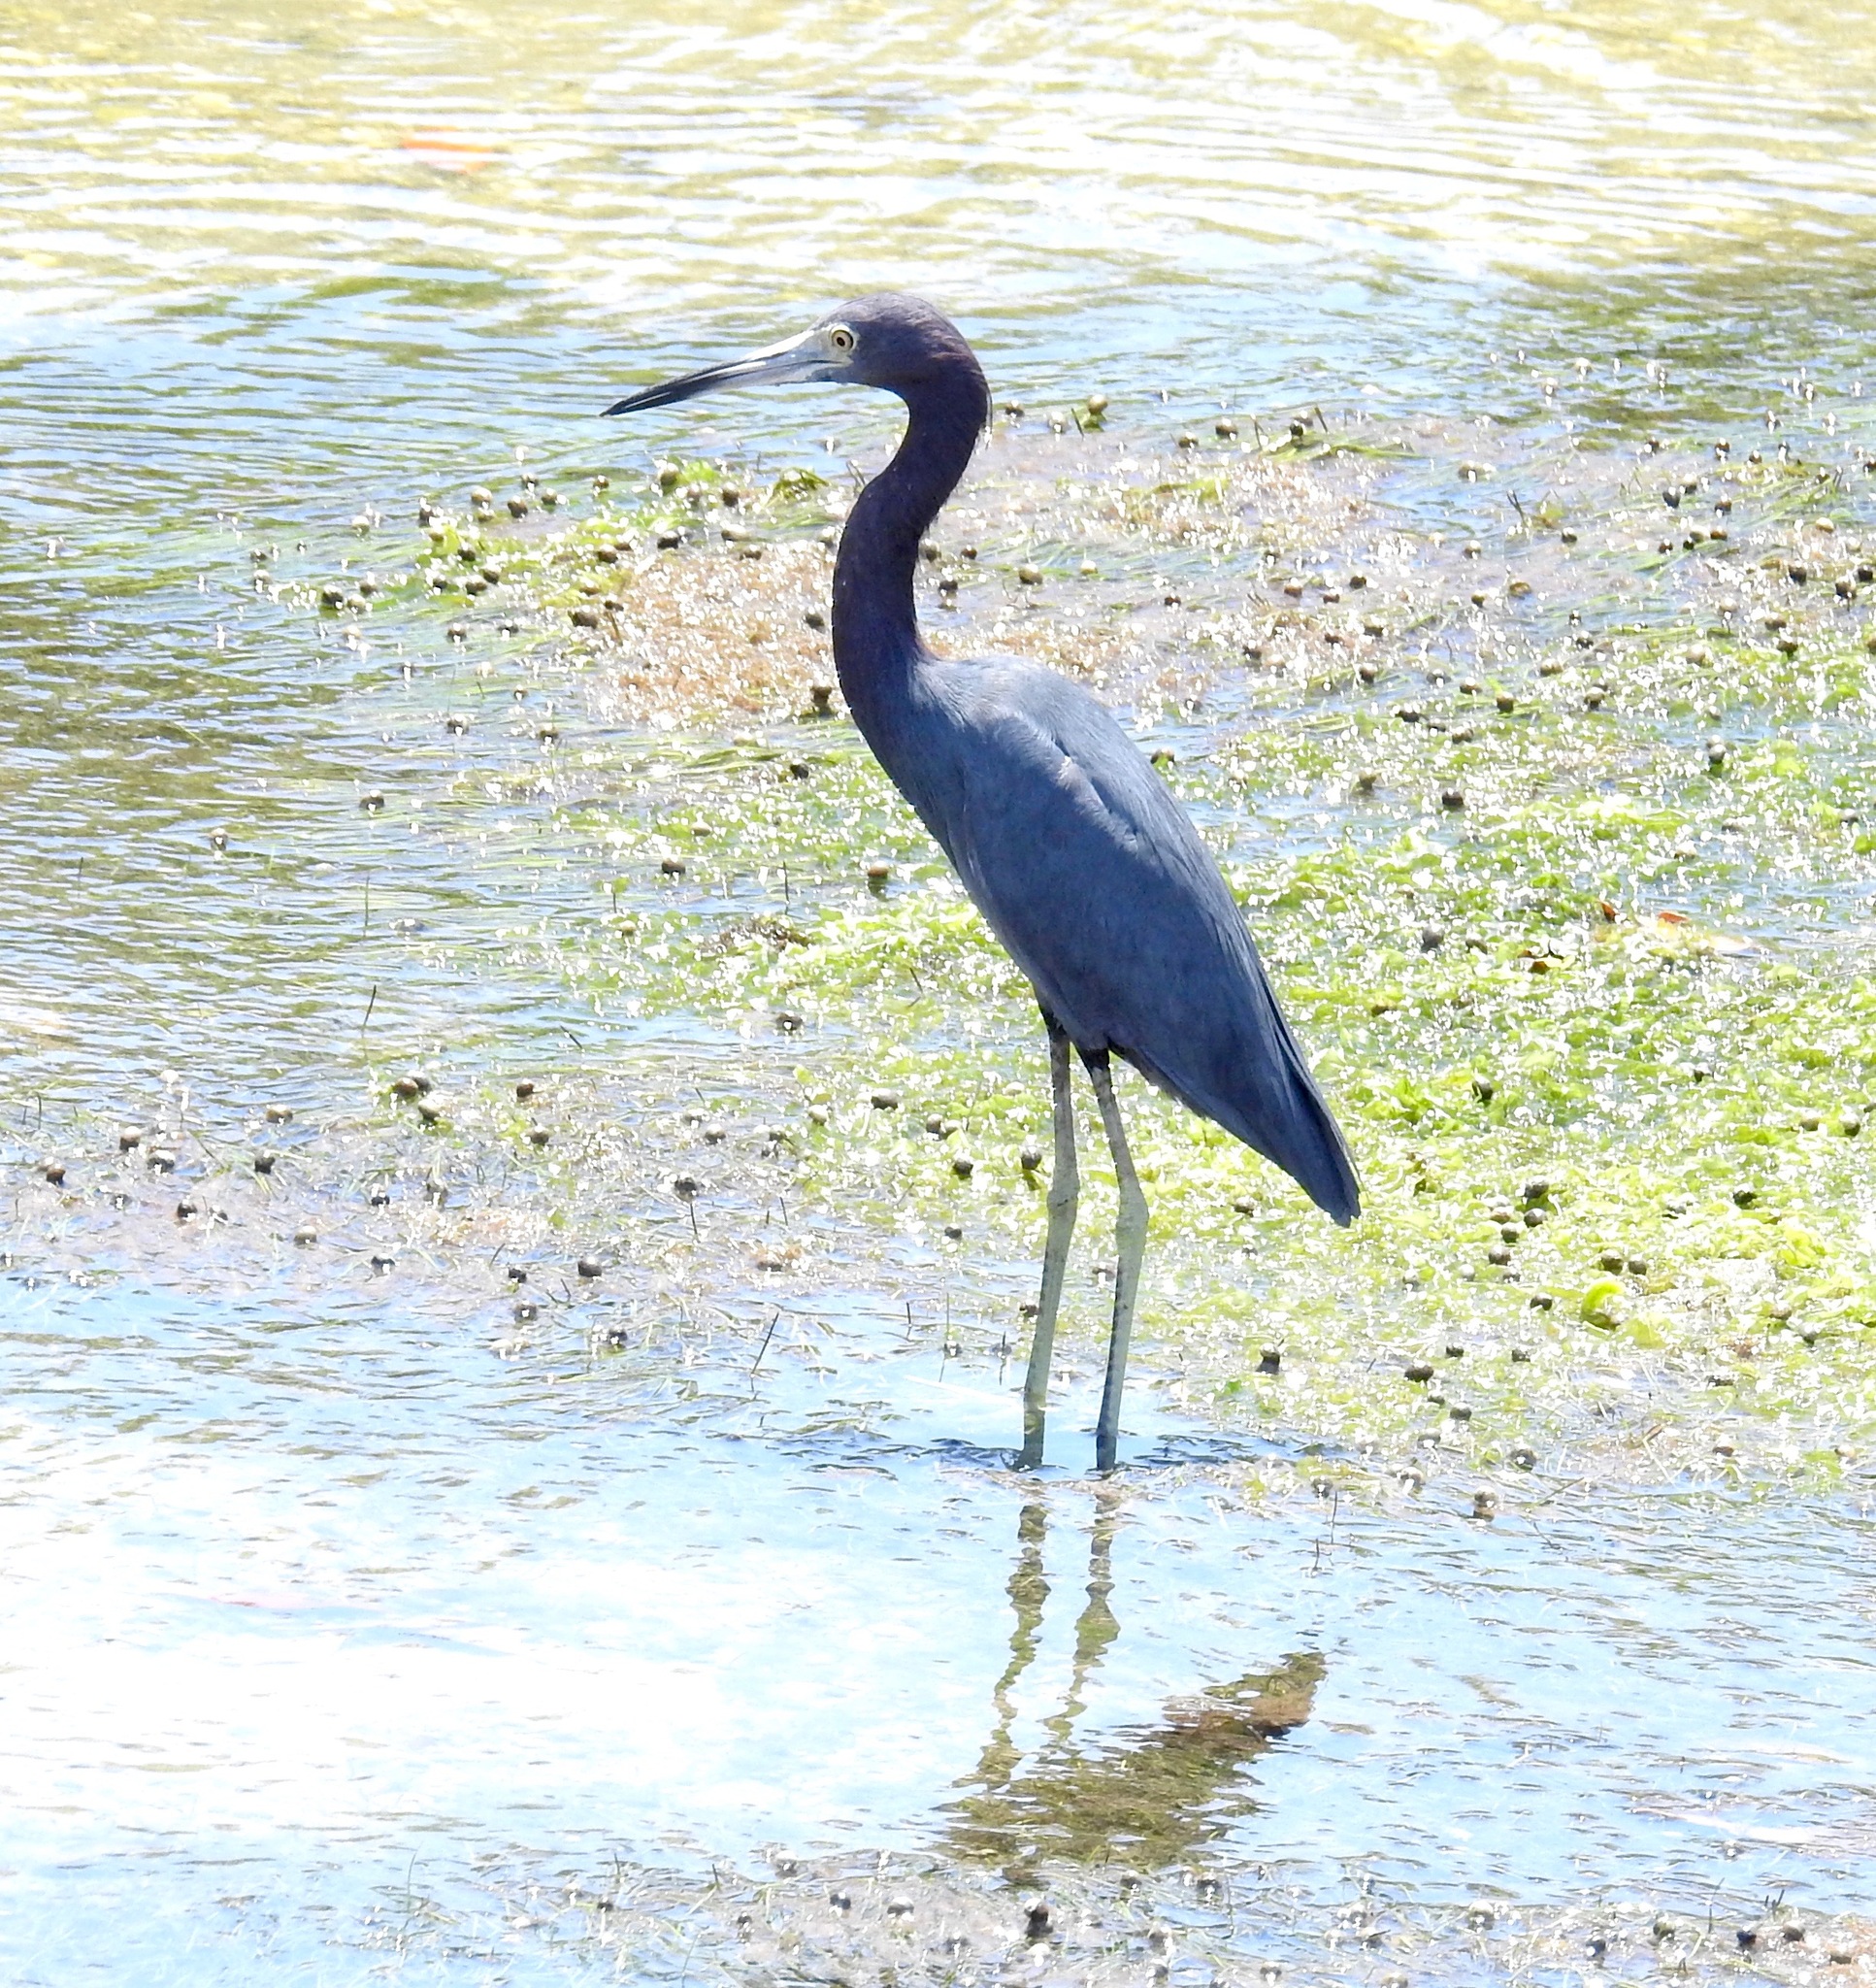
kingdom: Animalia
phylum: Chordata
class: Aves
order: Pelecaniformes
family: Ardeidae
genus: Egretta
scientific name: Egretta caerulea
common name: Little blue heron
